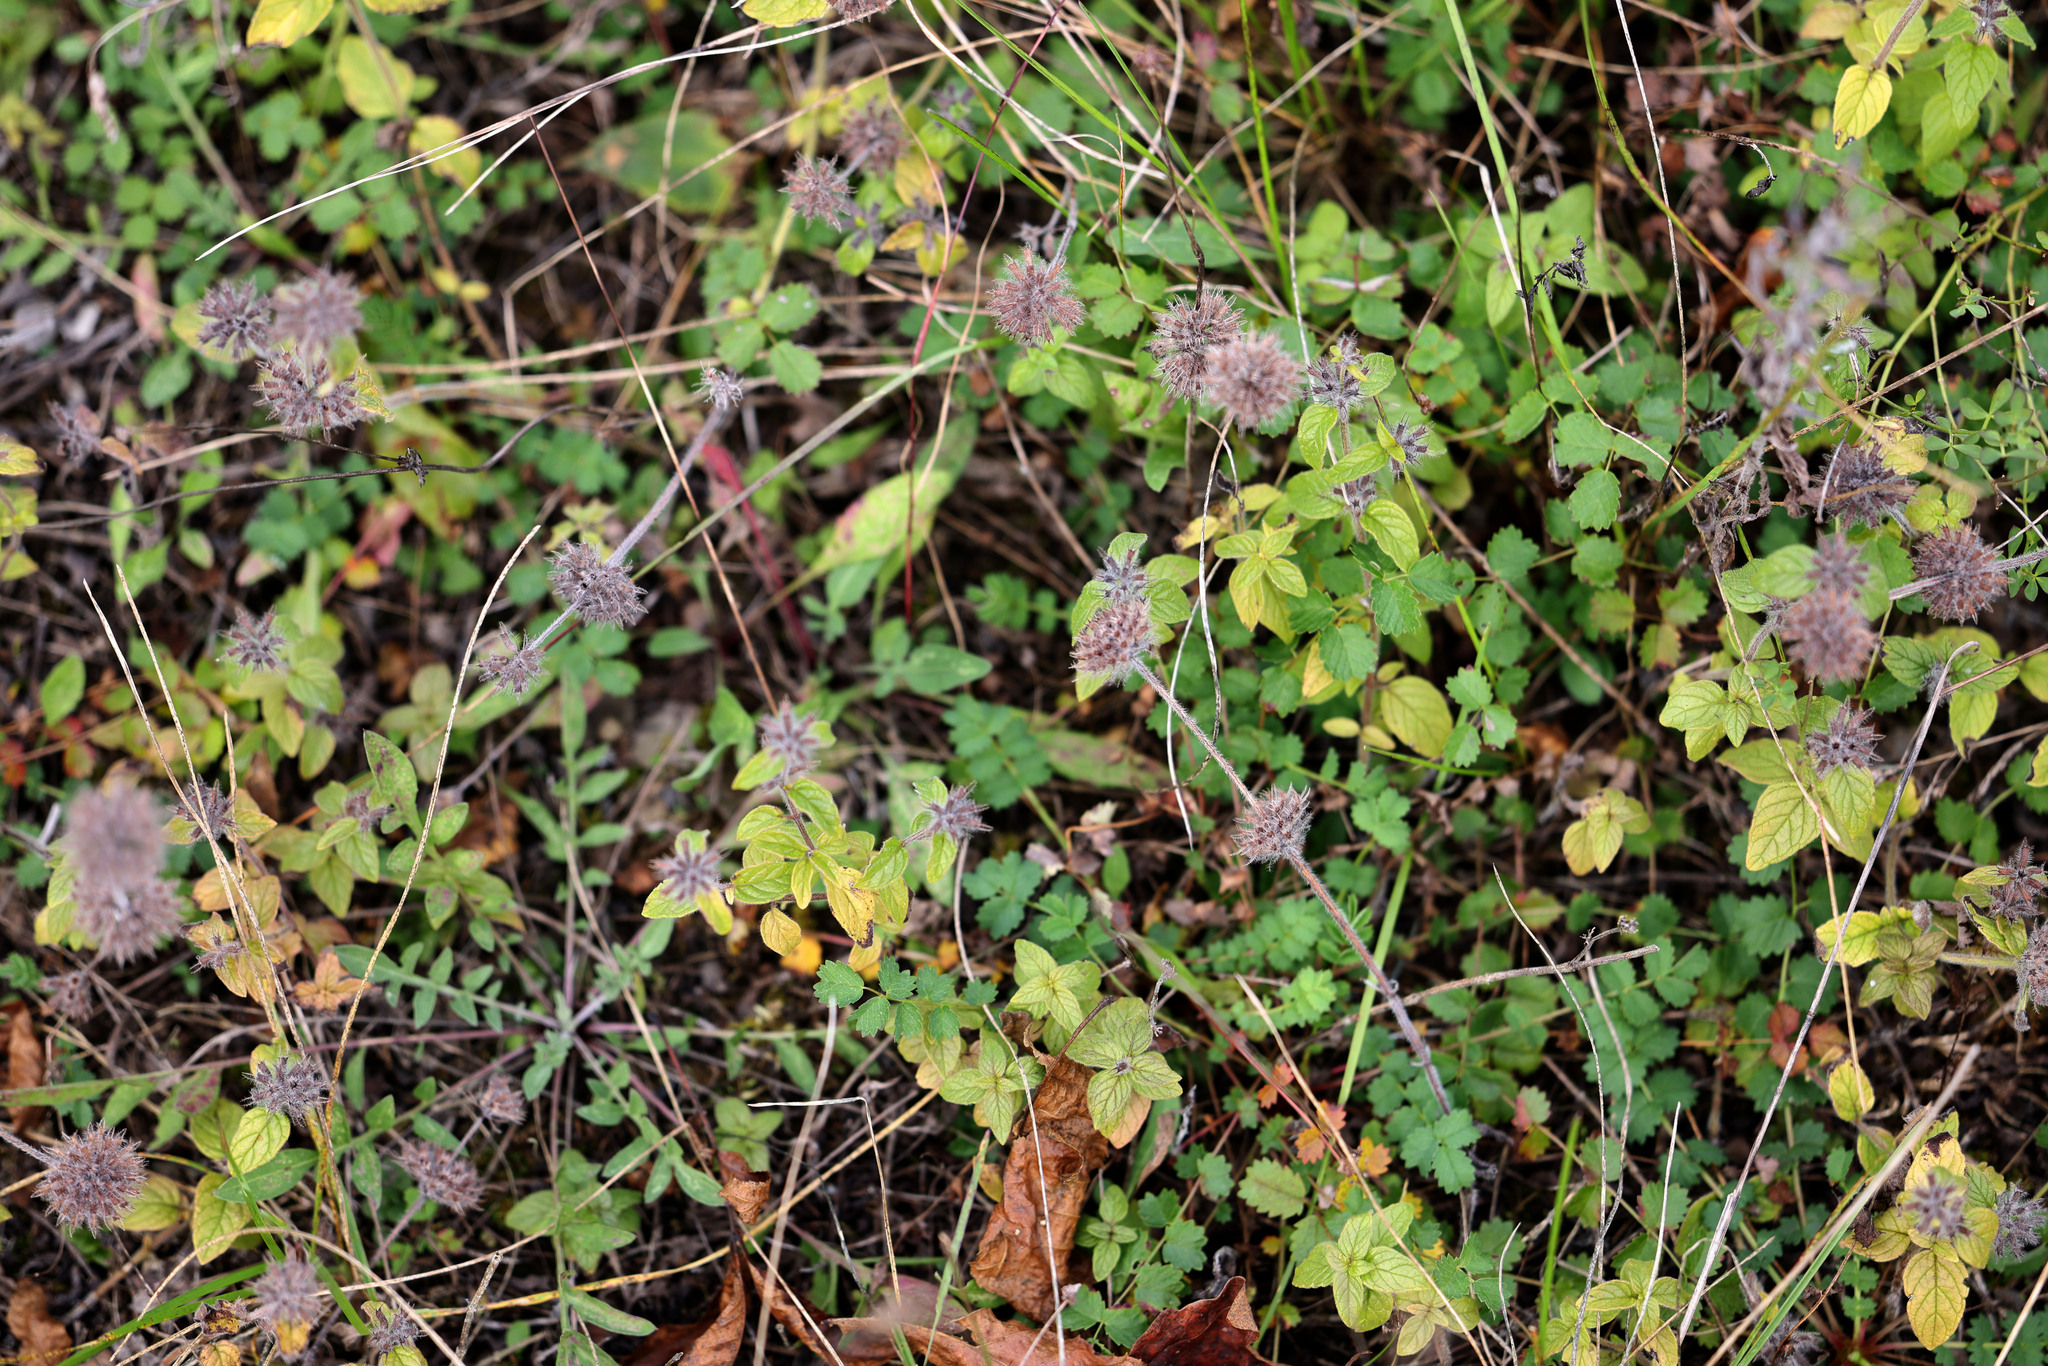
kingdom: Plantae
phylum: Tracheophyta
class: Magnoliopsida
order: Lamiales
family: Lamiaceae
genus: Clinopodium
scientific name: Clinopodium vulgare
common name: Wild basil
